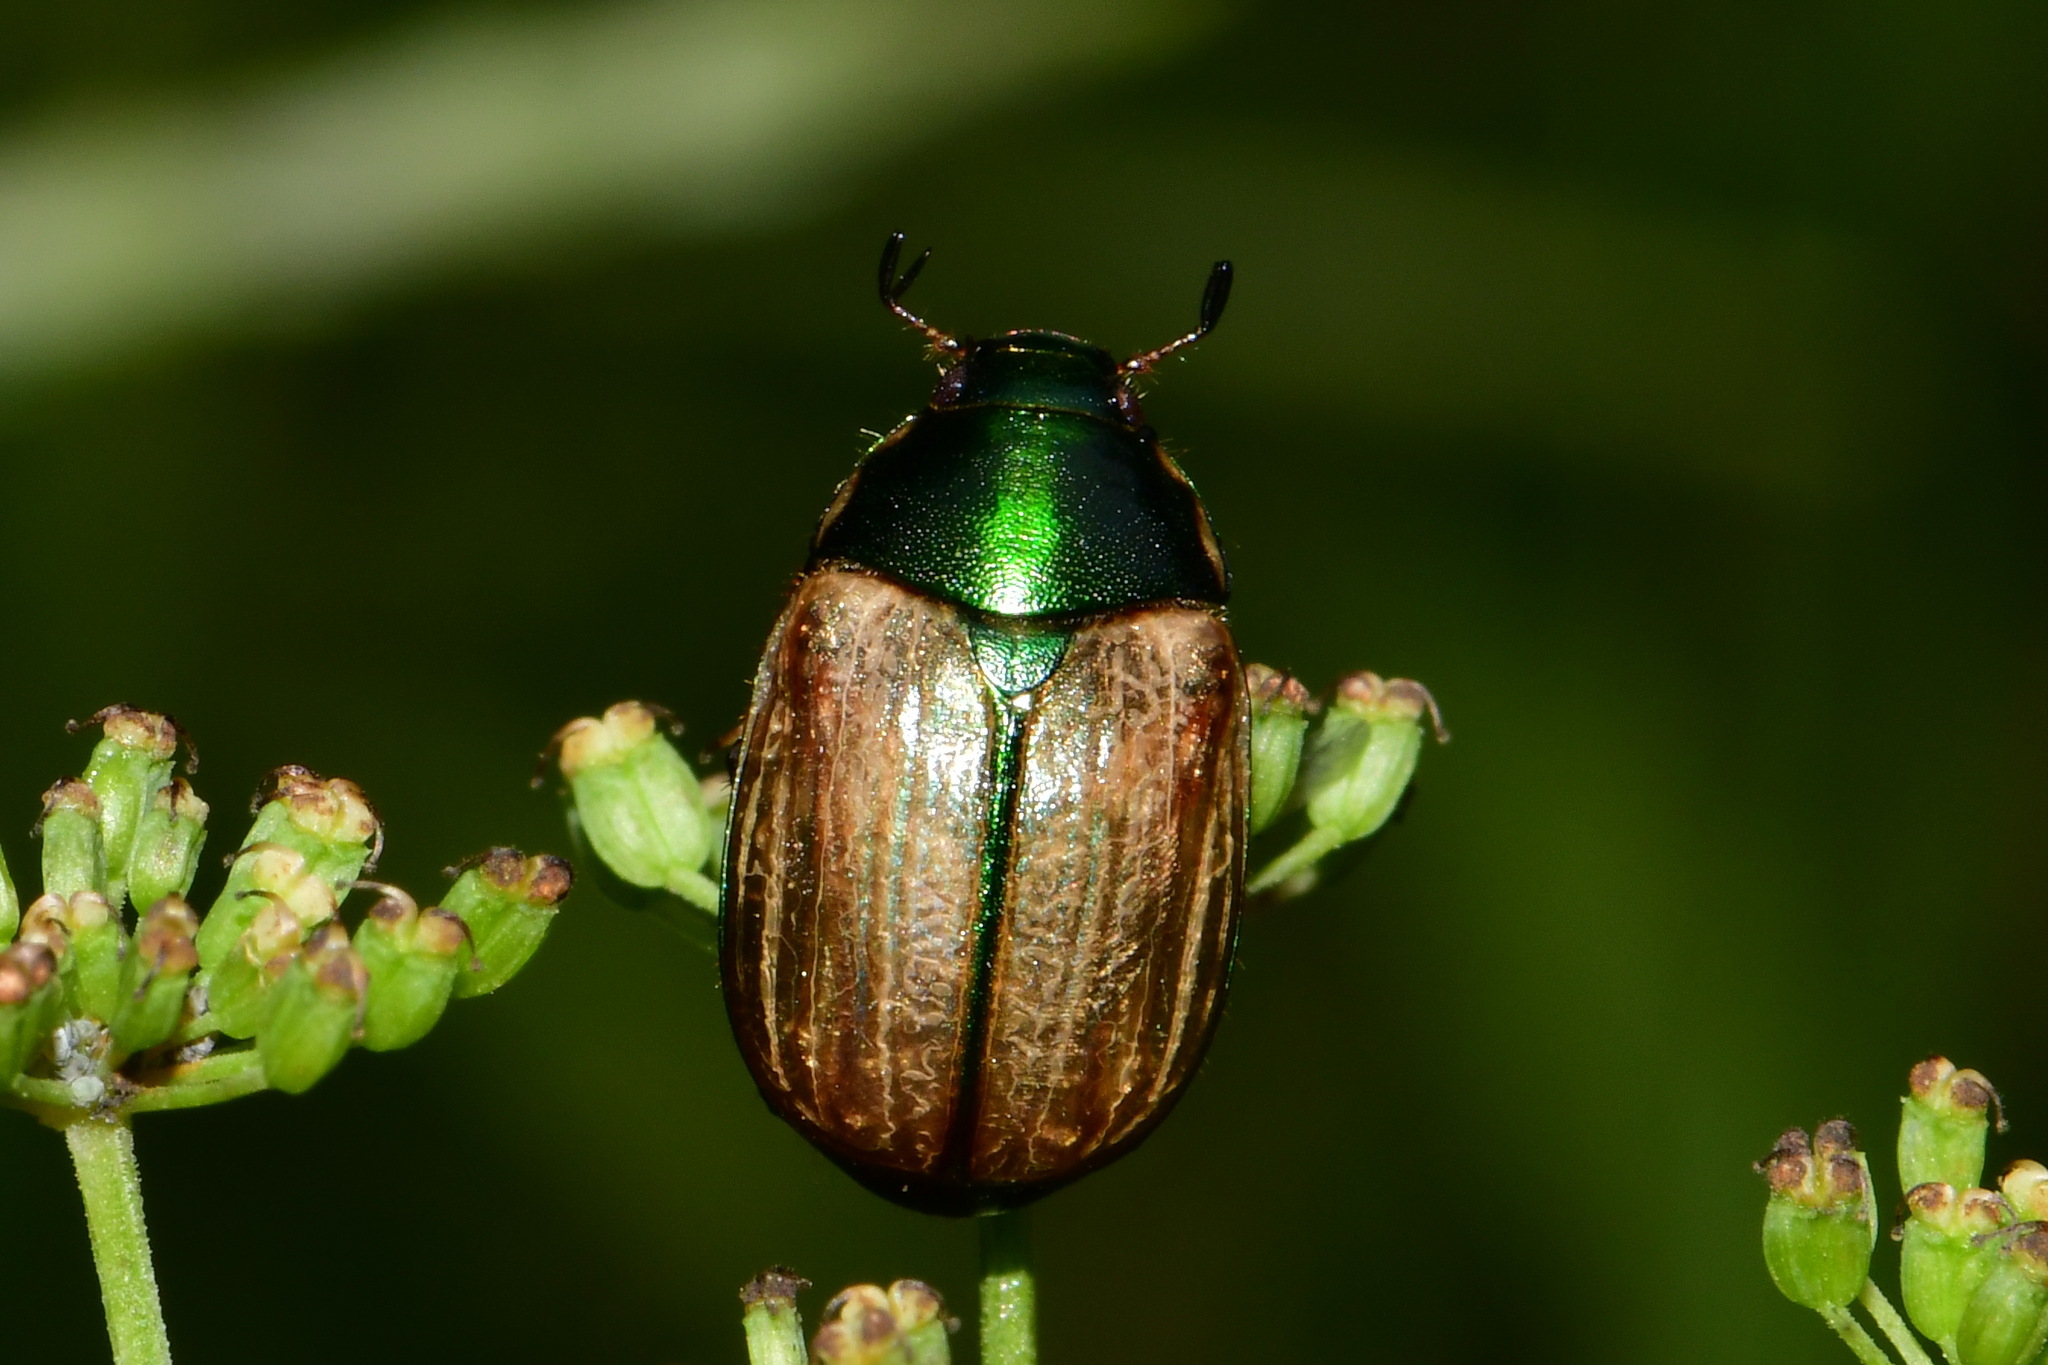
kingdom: Animalia
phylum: Arthropoda
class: Insecta
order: Coleoptera
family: Scarabaeidae
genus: Anomala
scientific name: Anomala dubia
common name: Dune chafer
